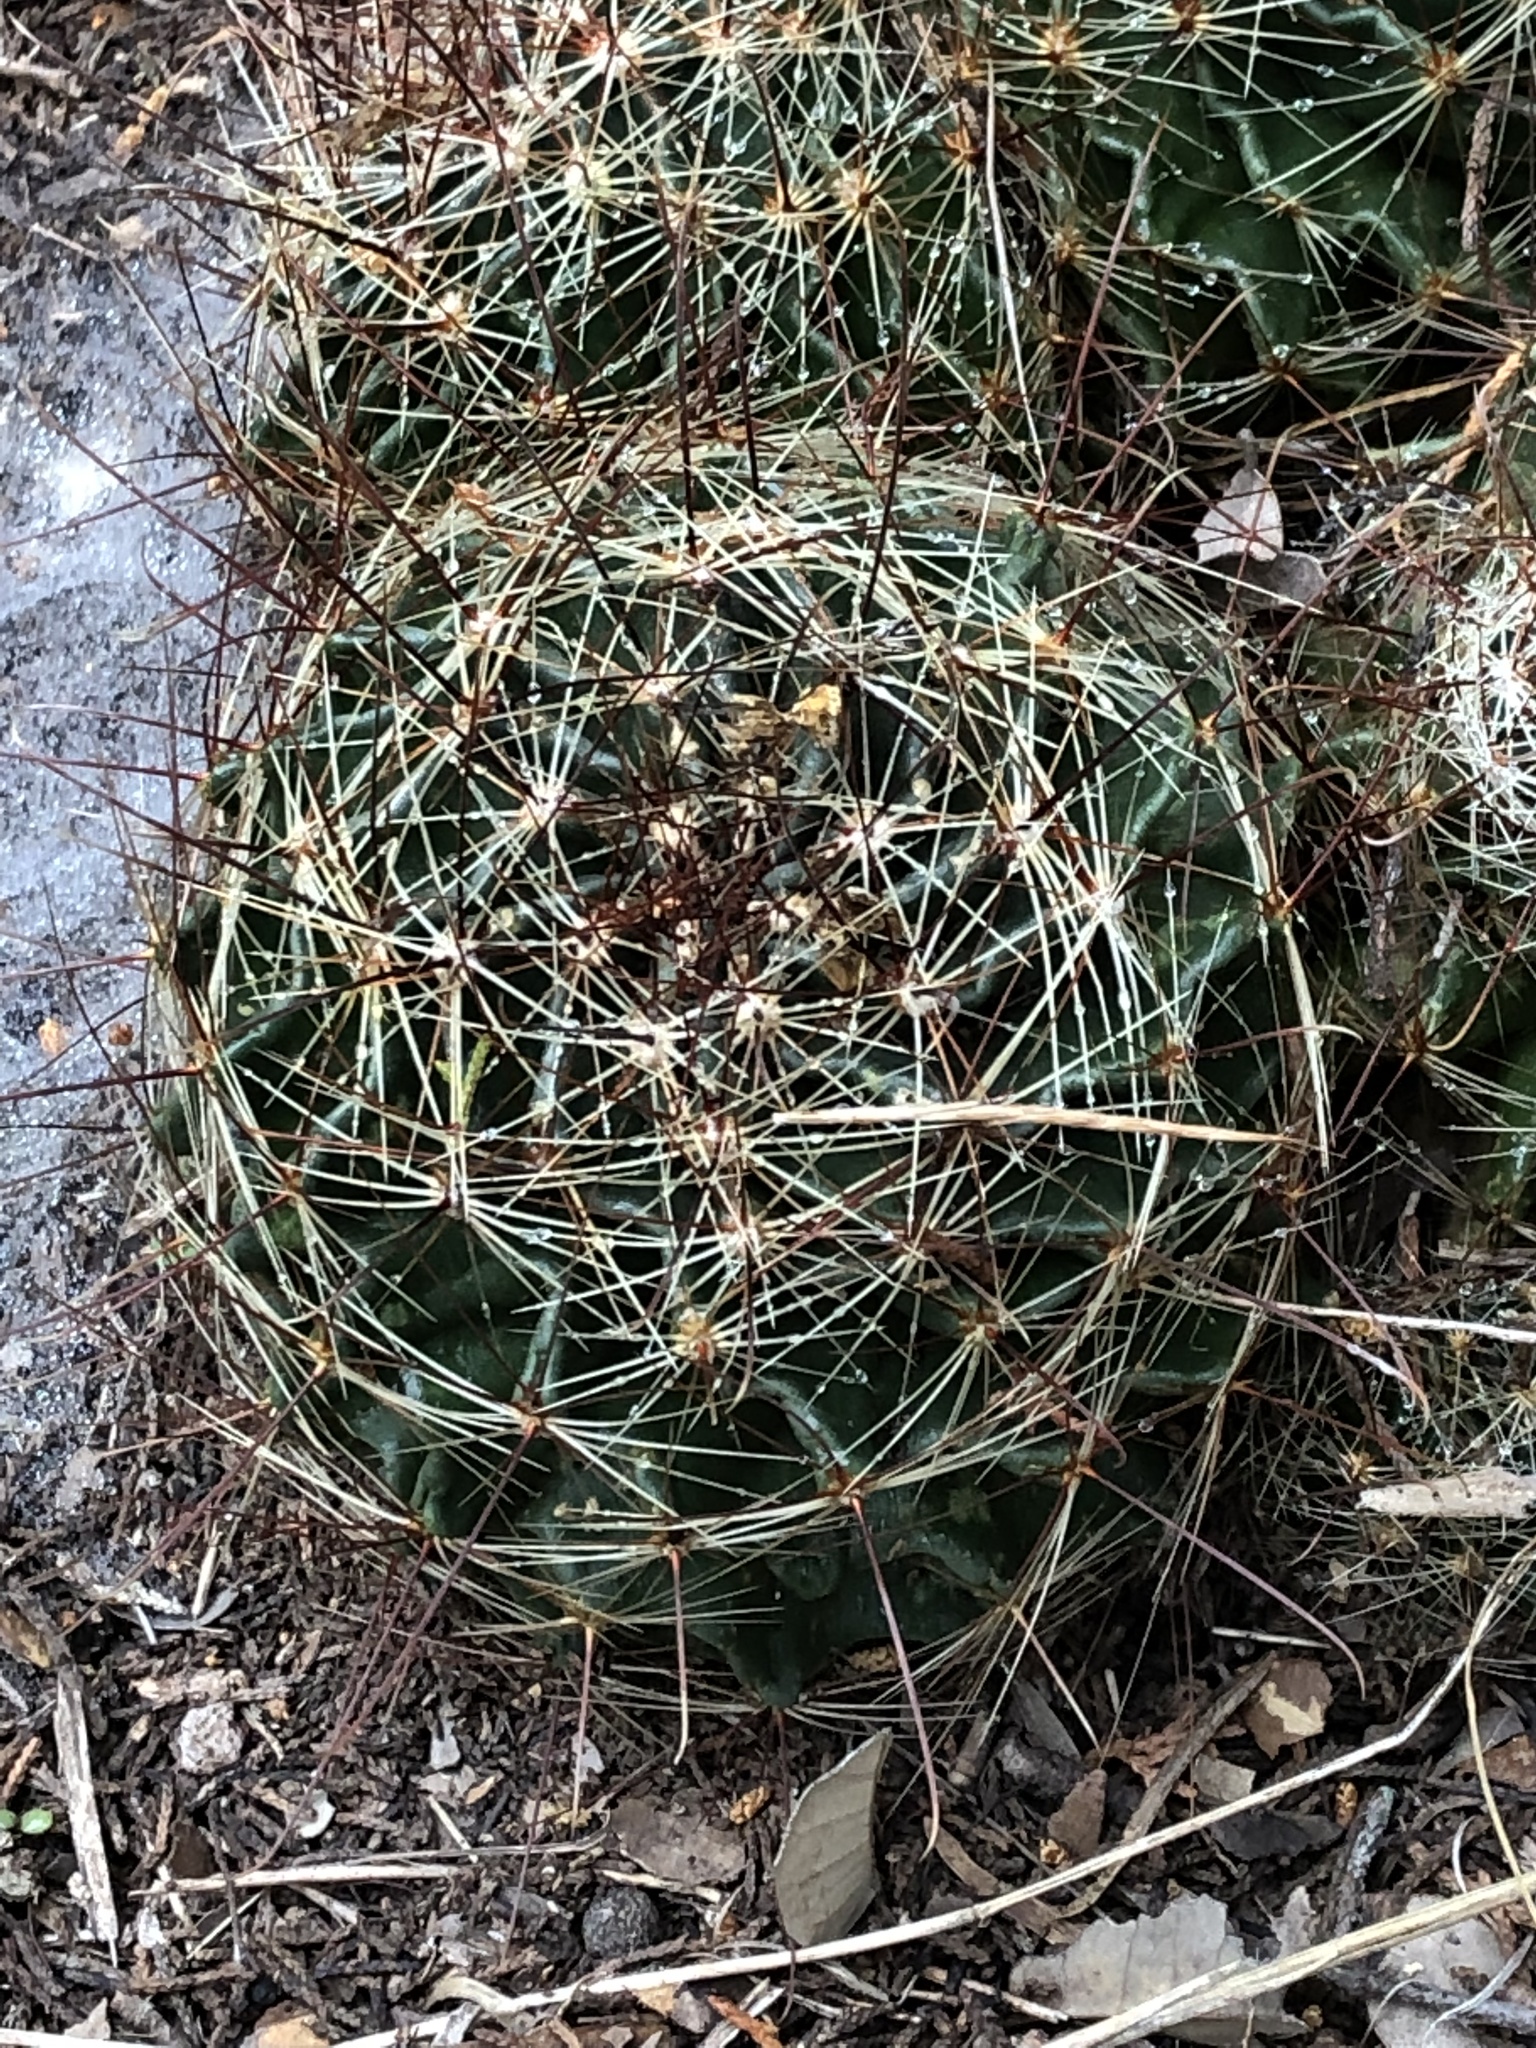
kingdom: Plantae
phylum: Tracheophyta
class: Magnoliopsida
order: Caryophyllales
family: Cactaceae
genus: Thelocactus
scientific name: Thelocactus setispinus
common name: Miniature barrel cactus
